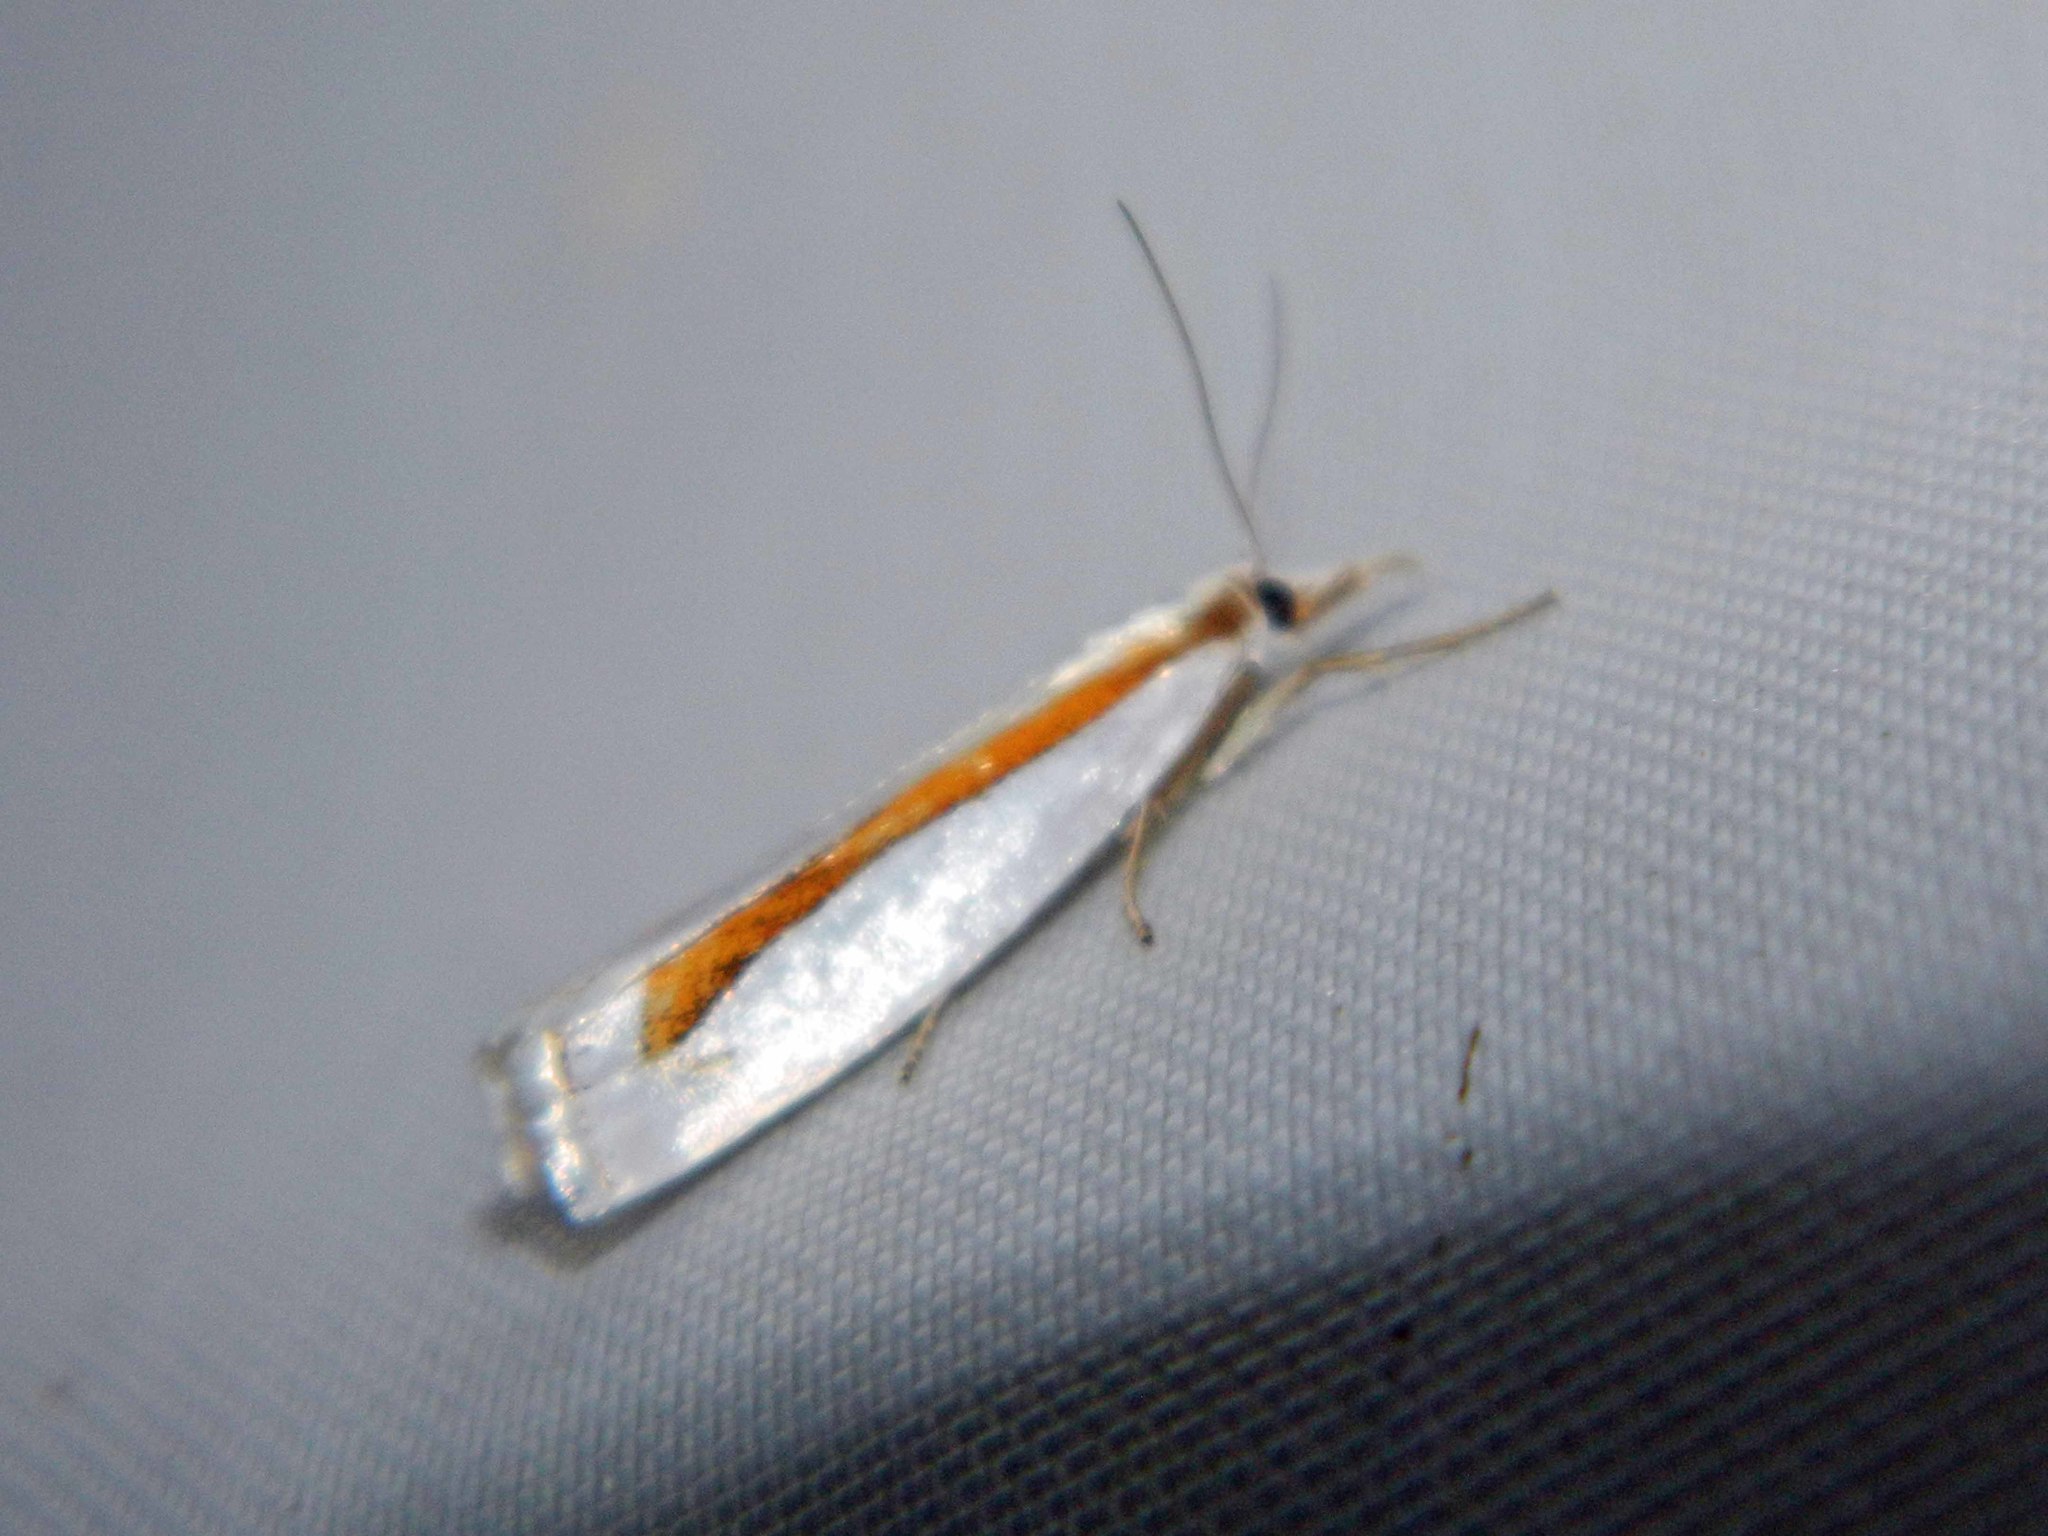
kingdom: Animalia
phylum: Arthropoda
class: Insecta
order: Lepidoptera
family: Crambidae
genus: Crambus
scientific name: Crambus girardellus
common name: Girard's grass-veneer
